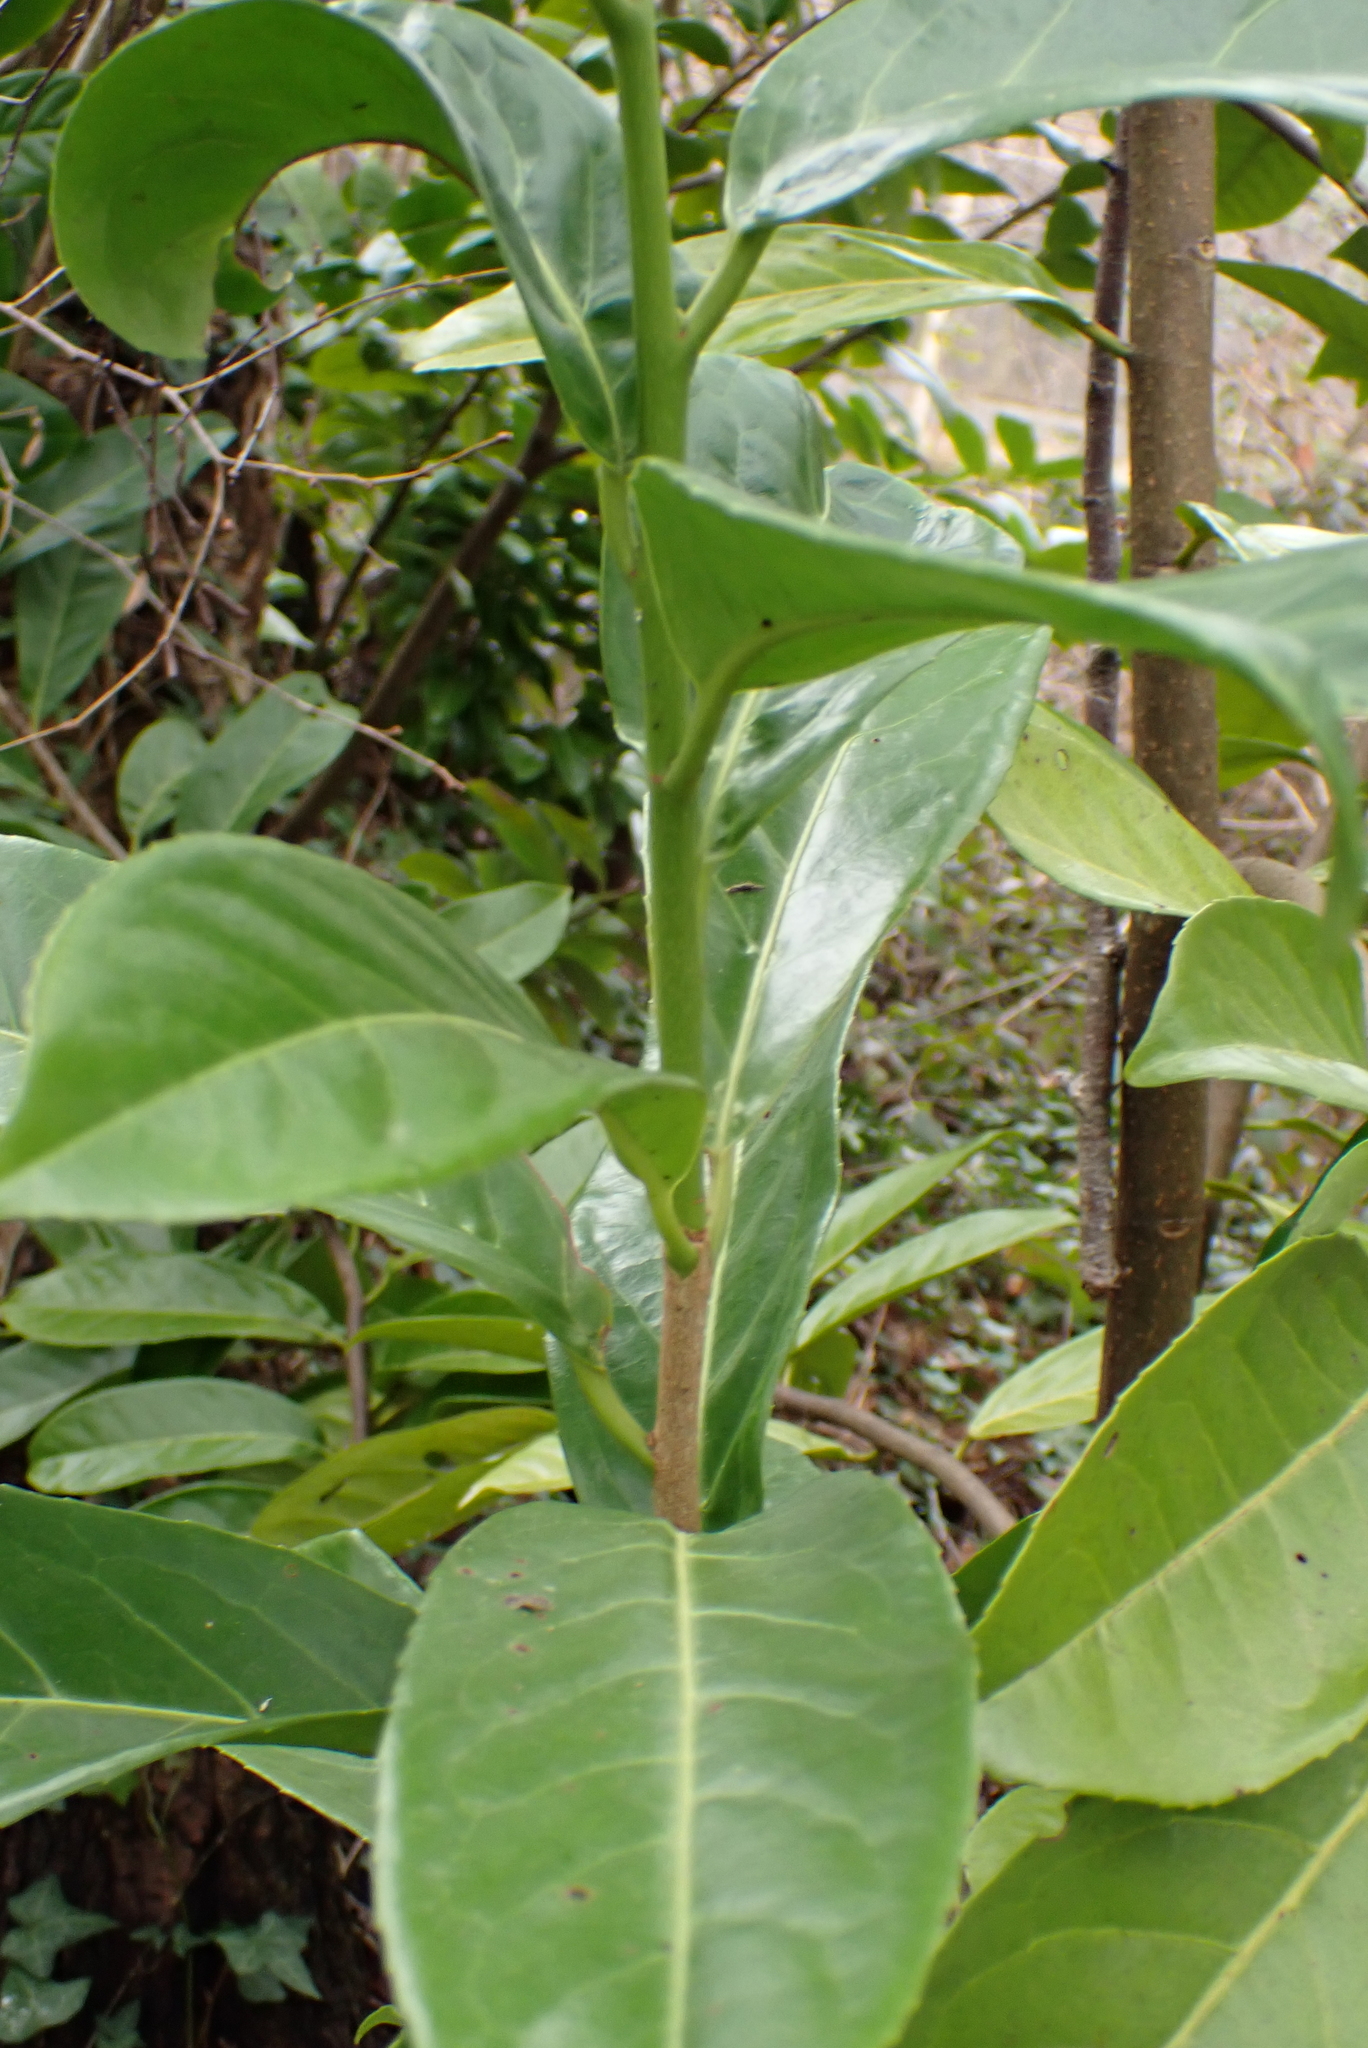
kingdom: Plantae
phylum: Tracheophyta
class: Magnoliopsida
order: Rosales
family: Rosaceae
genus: Prunus
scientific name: Prunus laurocerasus
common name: Cherry laurel
